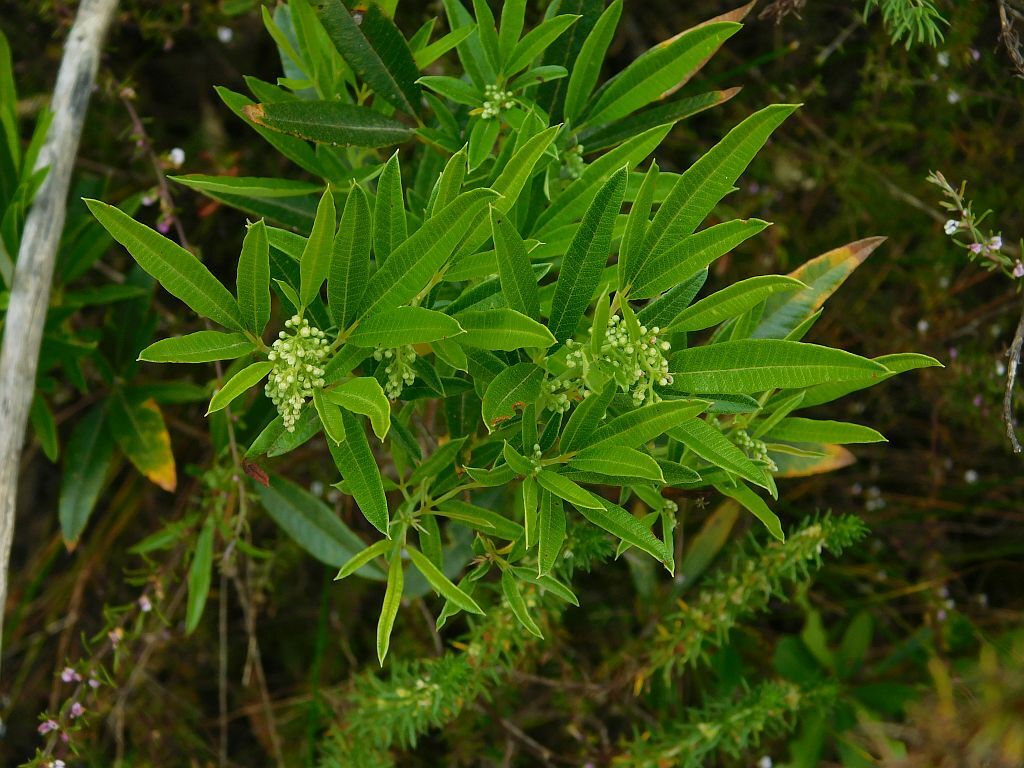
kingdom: Plantae
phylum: Tracheophyta
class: Magnoliopsida
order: Sapindales
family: Anacardiaceae
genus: Searsia
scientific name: Searsia angustifolia
